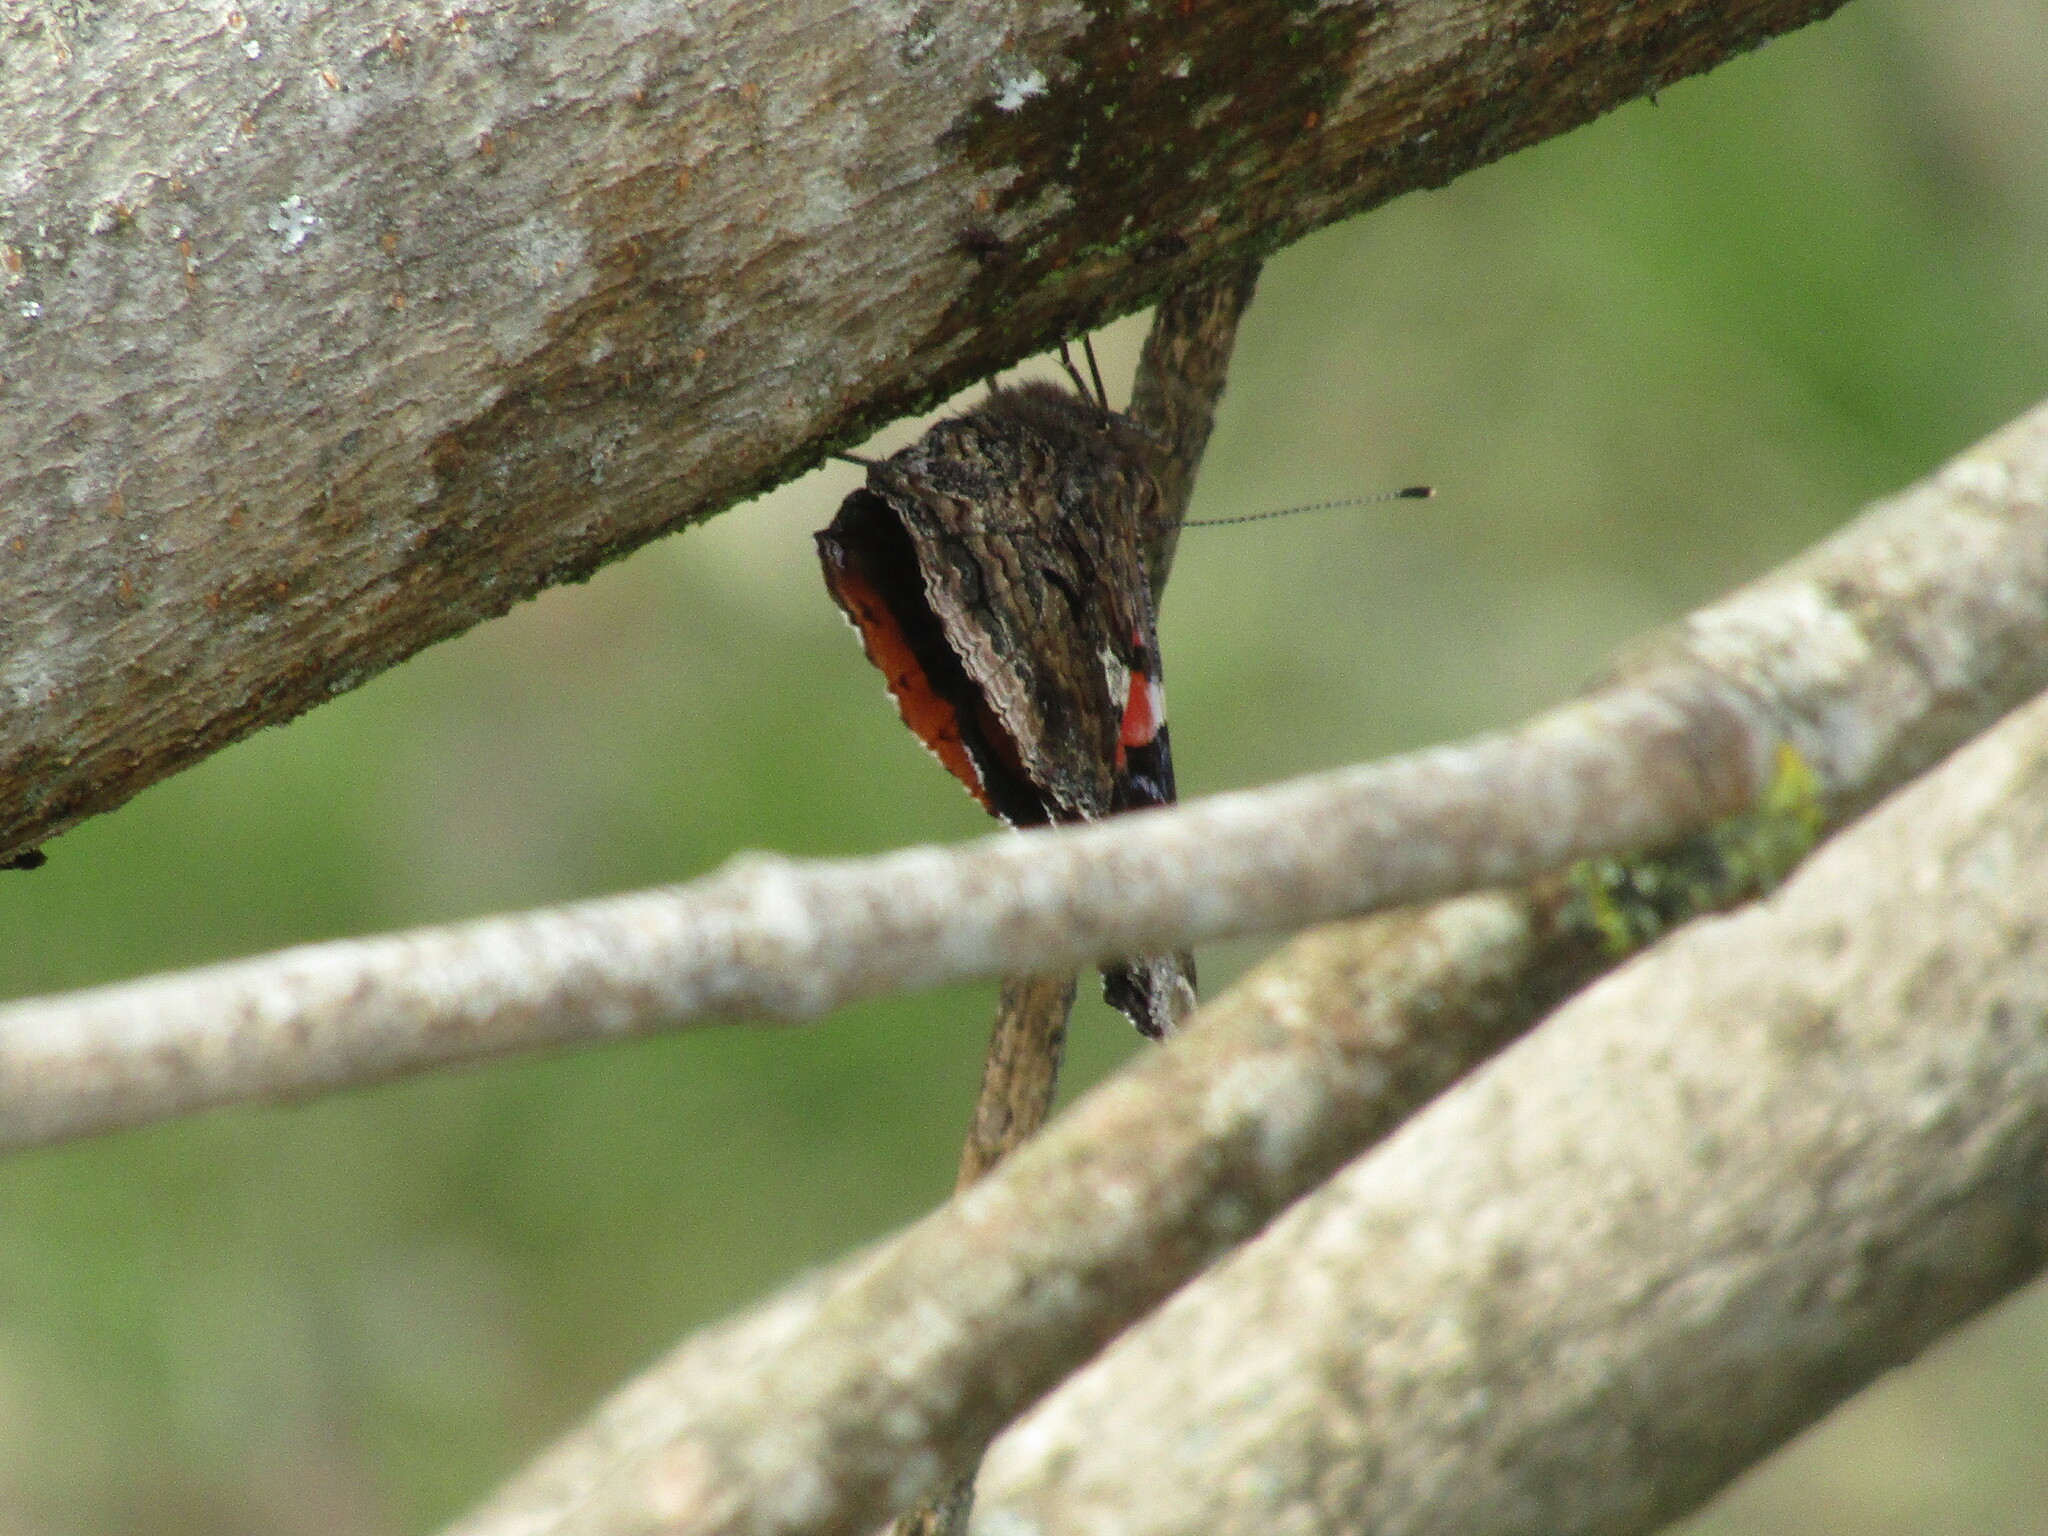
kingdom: Animalia
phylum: Arthropoda
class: Insecta
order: Lepidoptera
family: Nymphalidae
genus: Vanessa
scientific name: Vanessa atalanta
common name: Red admiral
